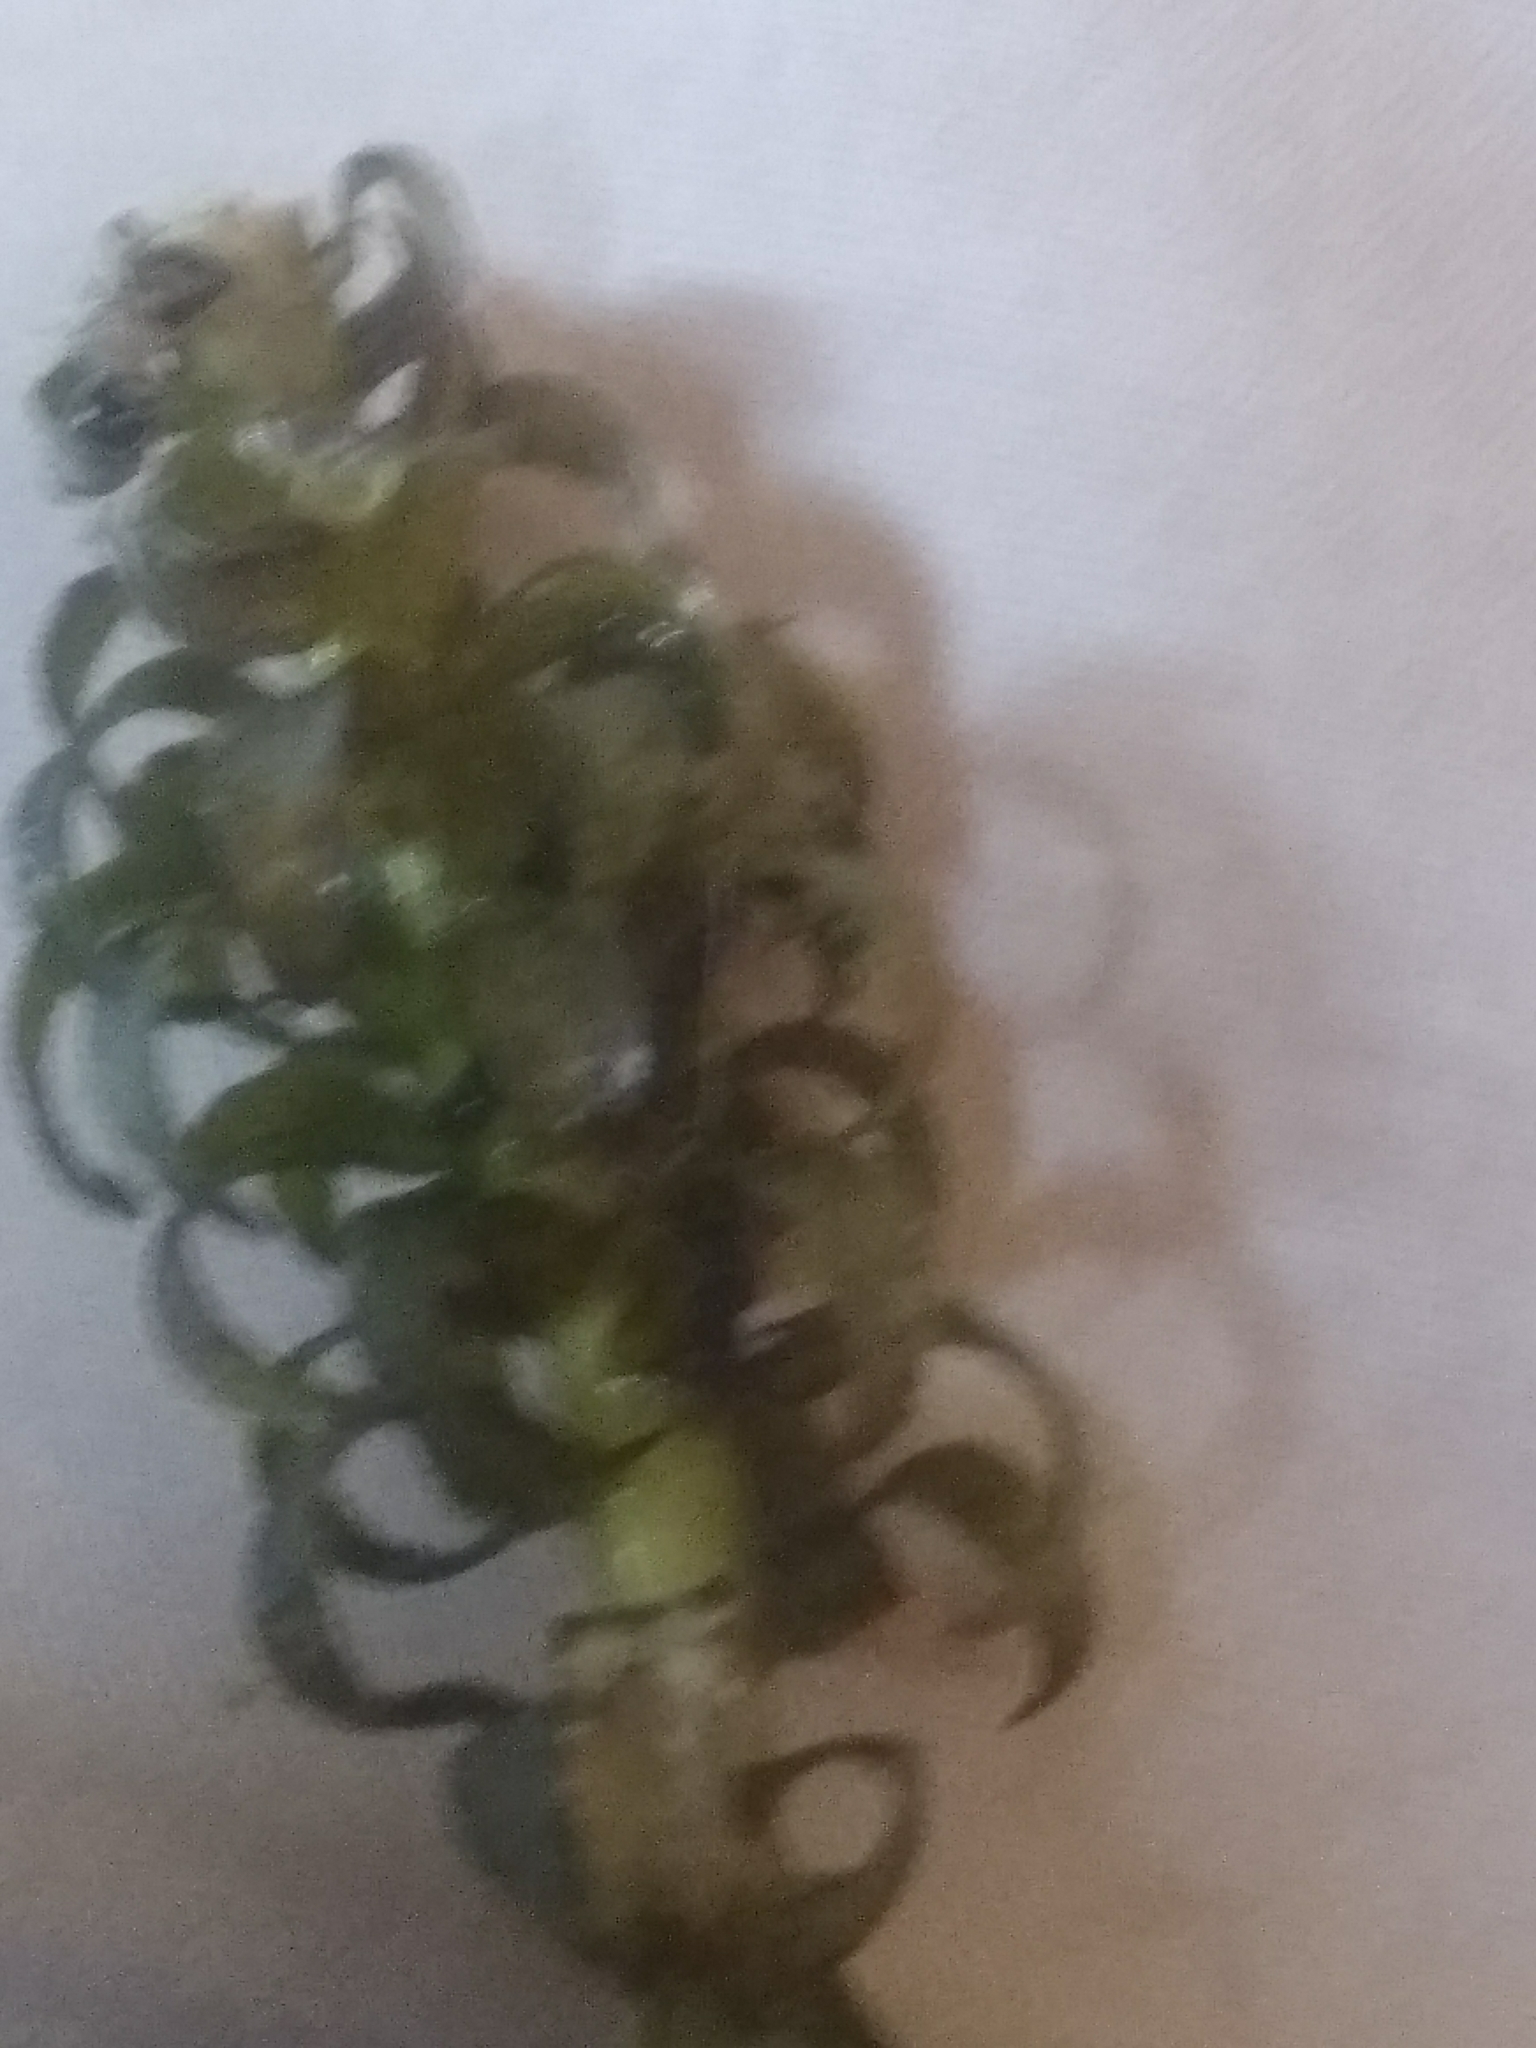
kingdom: Plantae
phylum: Tracheophyta
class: Liliopsida
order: Alismatales
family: Hydrocharitaceae
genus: Lagarosiphon
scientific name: Lagarosiphon major
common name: Curly waterweed
